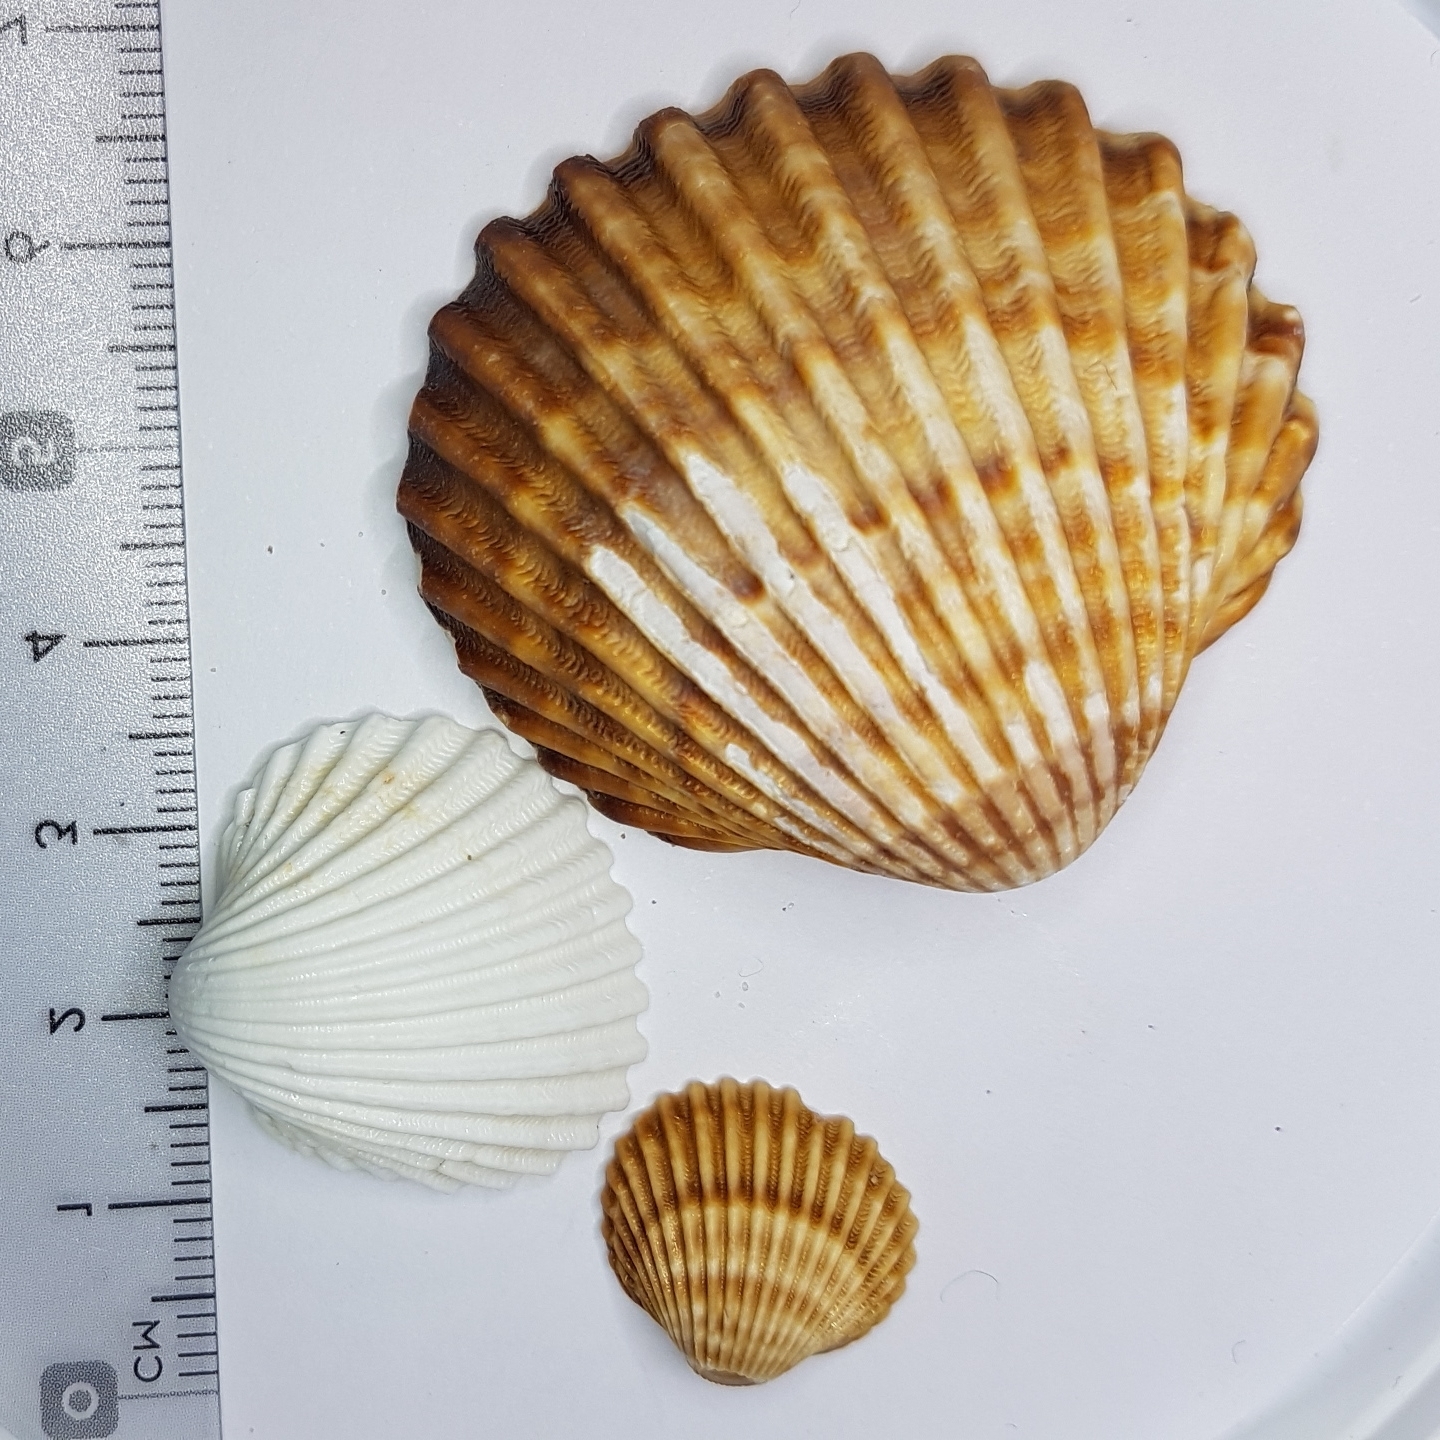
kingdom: Animalia
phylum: Mollusca
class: Bivalvia
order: Cardiida
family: Cardiidae
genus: Acanthocardia
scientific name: Acanthocardia tuberculata
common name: Rough cockle
